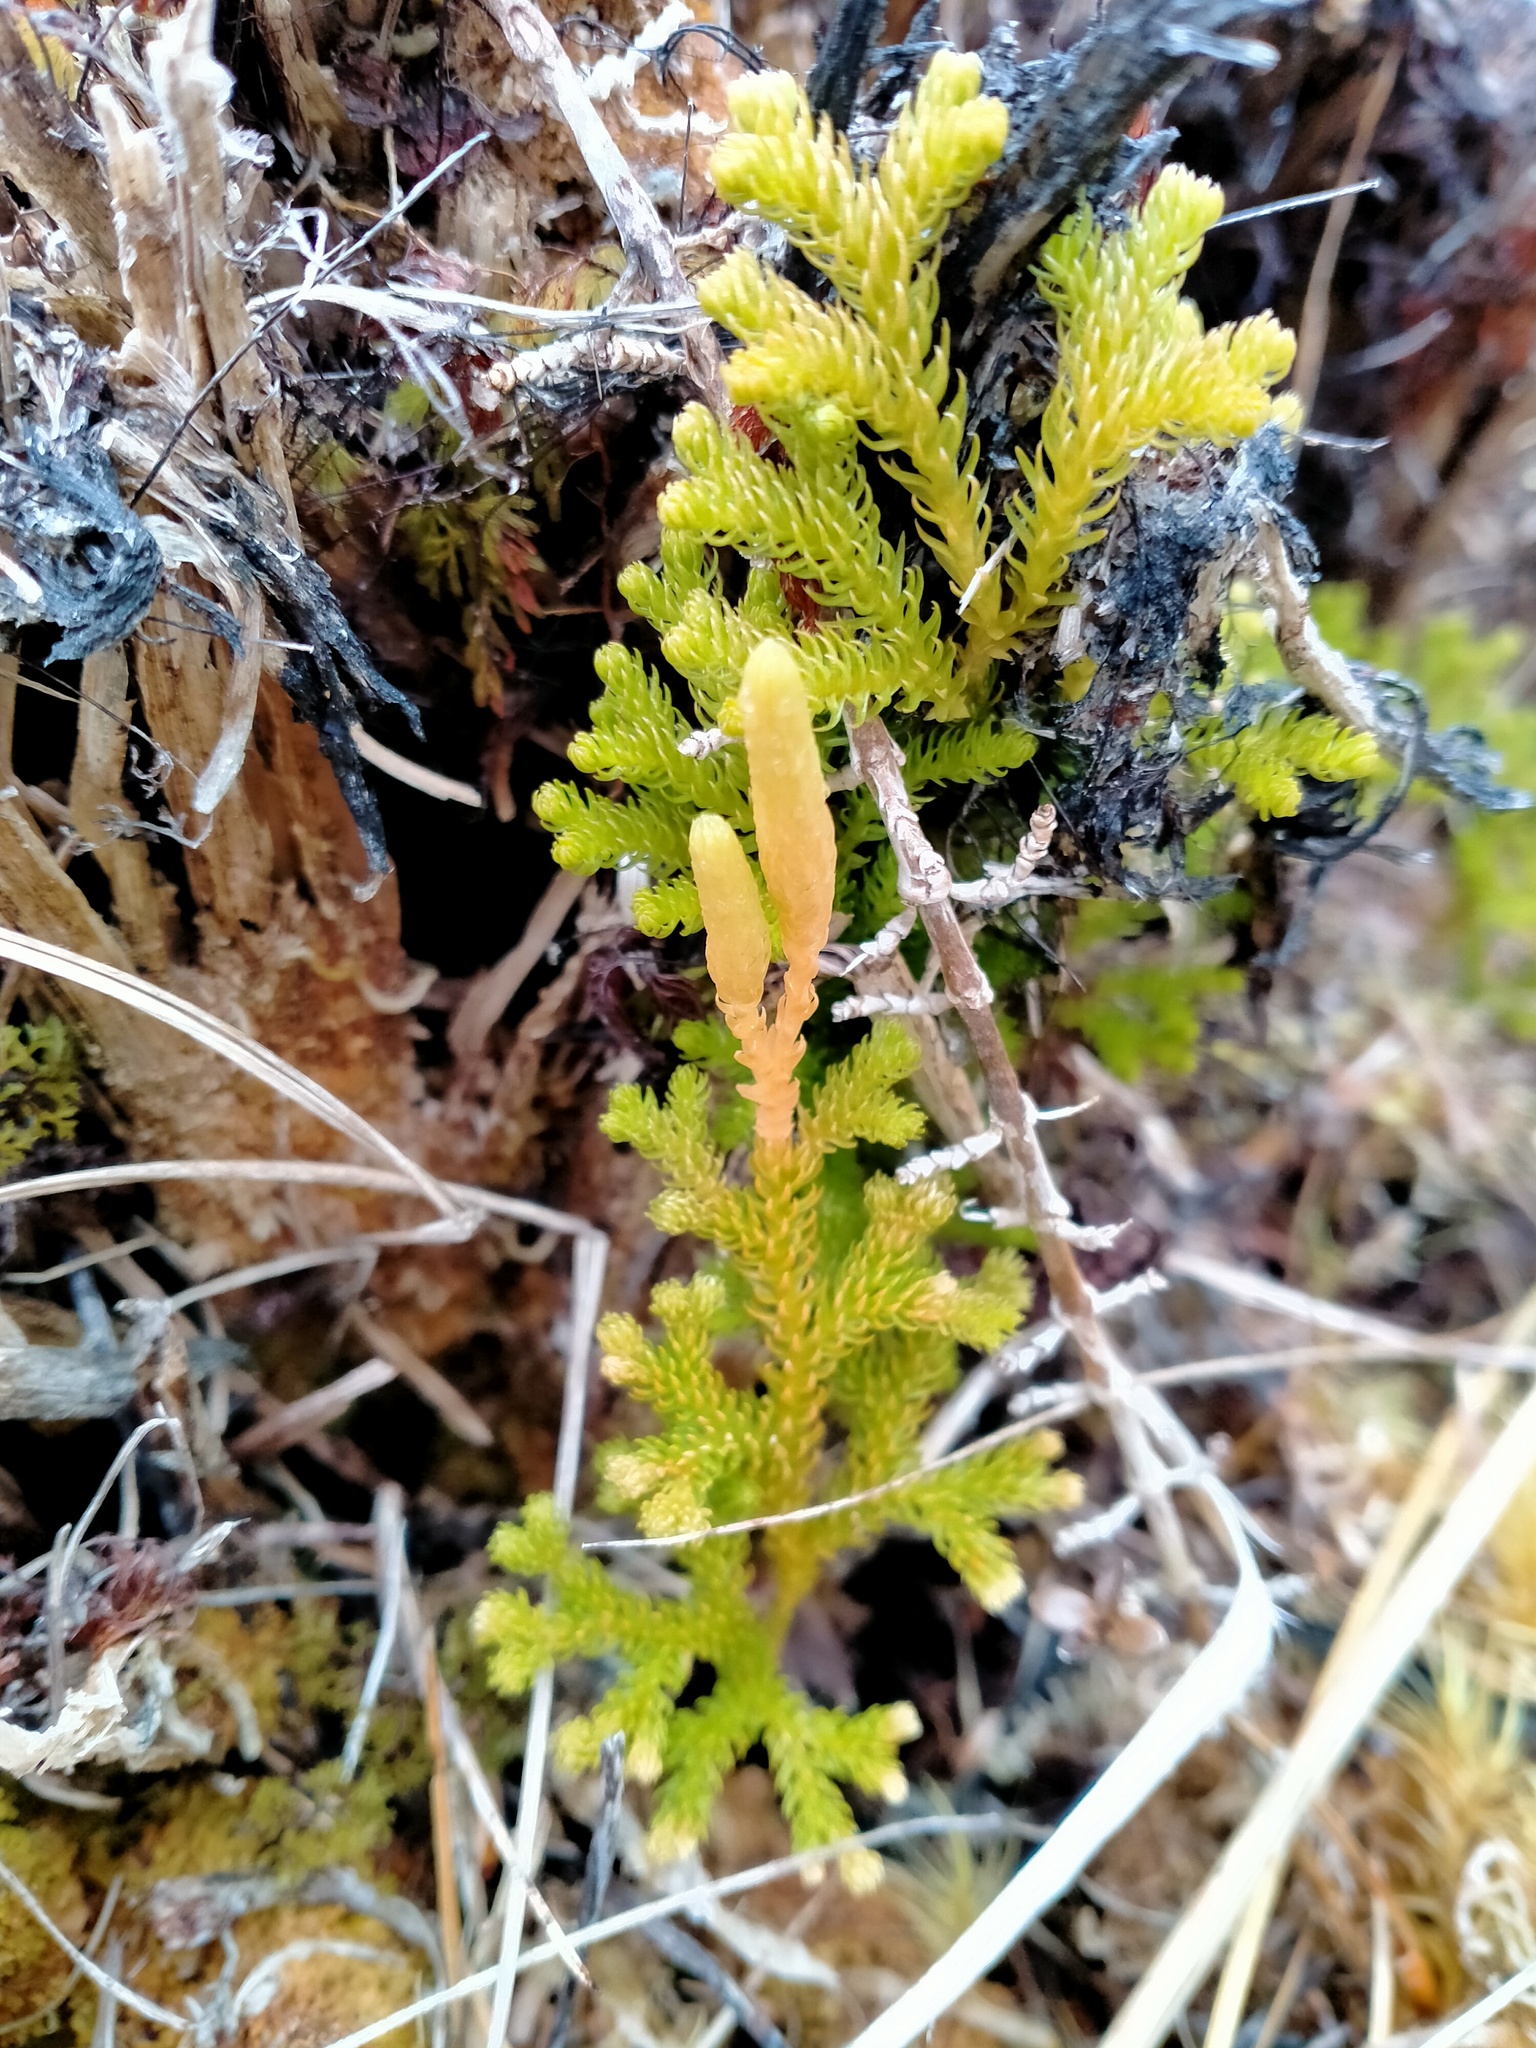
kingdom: Plantae
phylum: Tracheophyta
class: Lycopodiopsida
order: Lycopodiales
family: Lycopodiaceae
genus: Austrolycopodium
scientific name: Austrolycopodium fastigiatum
